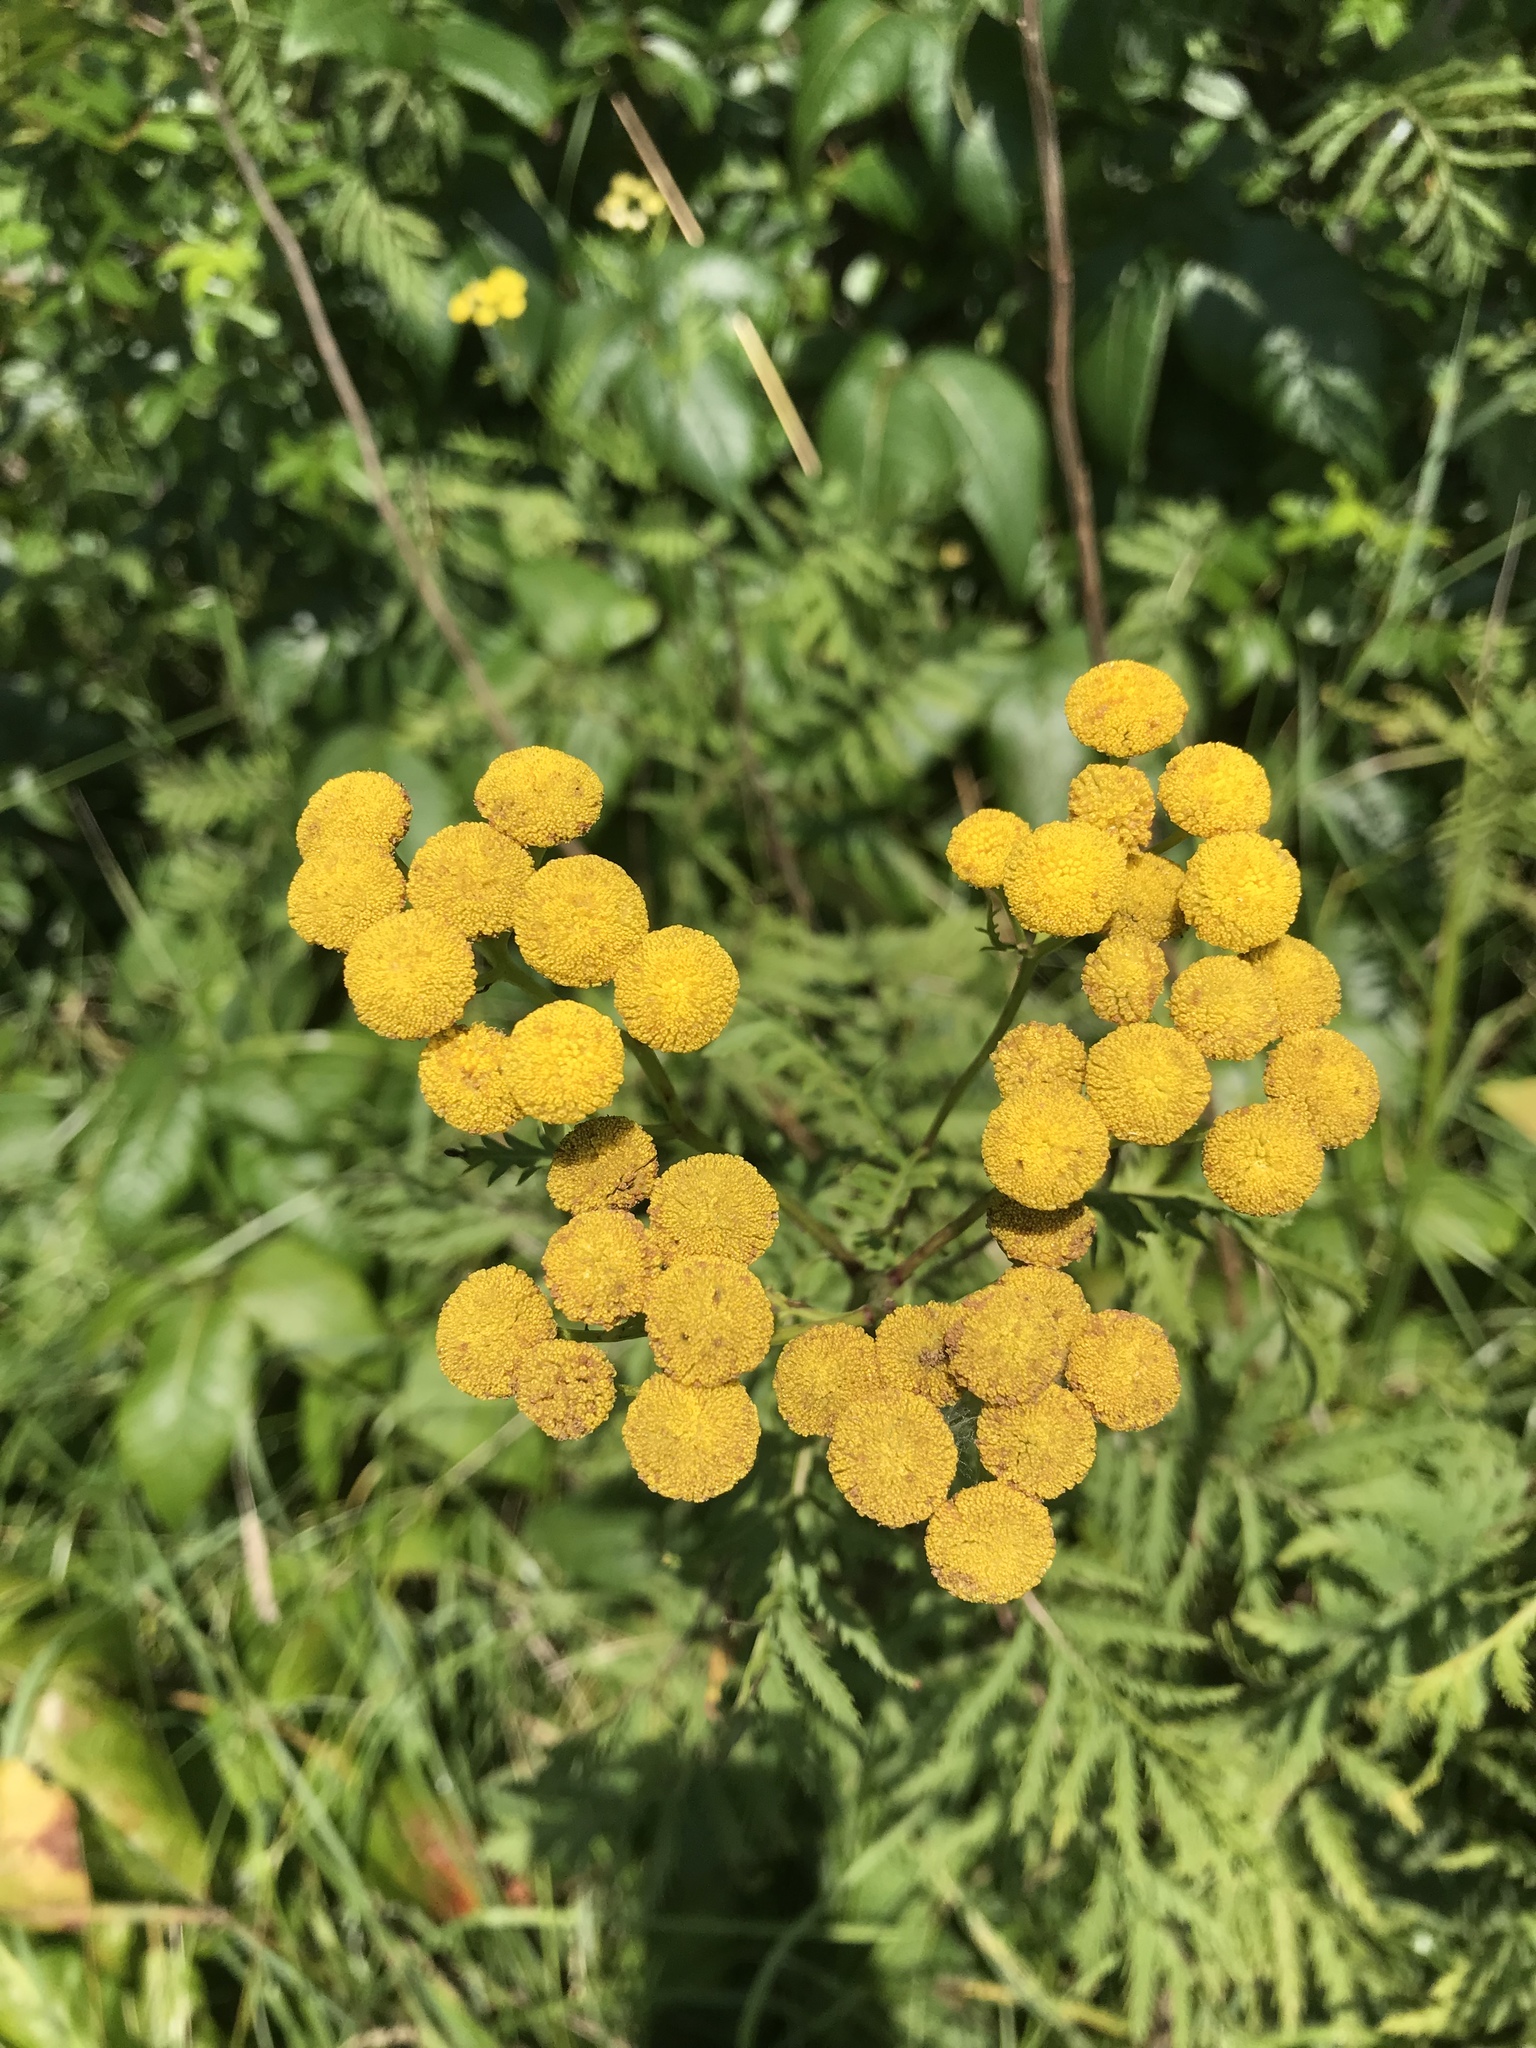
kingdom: Plantae
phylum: Tracheophyta
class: Magnoliopsida
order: Asterales
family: Asteraceae
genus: Tanacetum
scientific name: Tanacetum vulgare
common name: Common tansy
